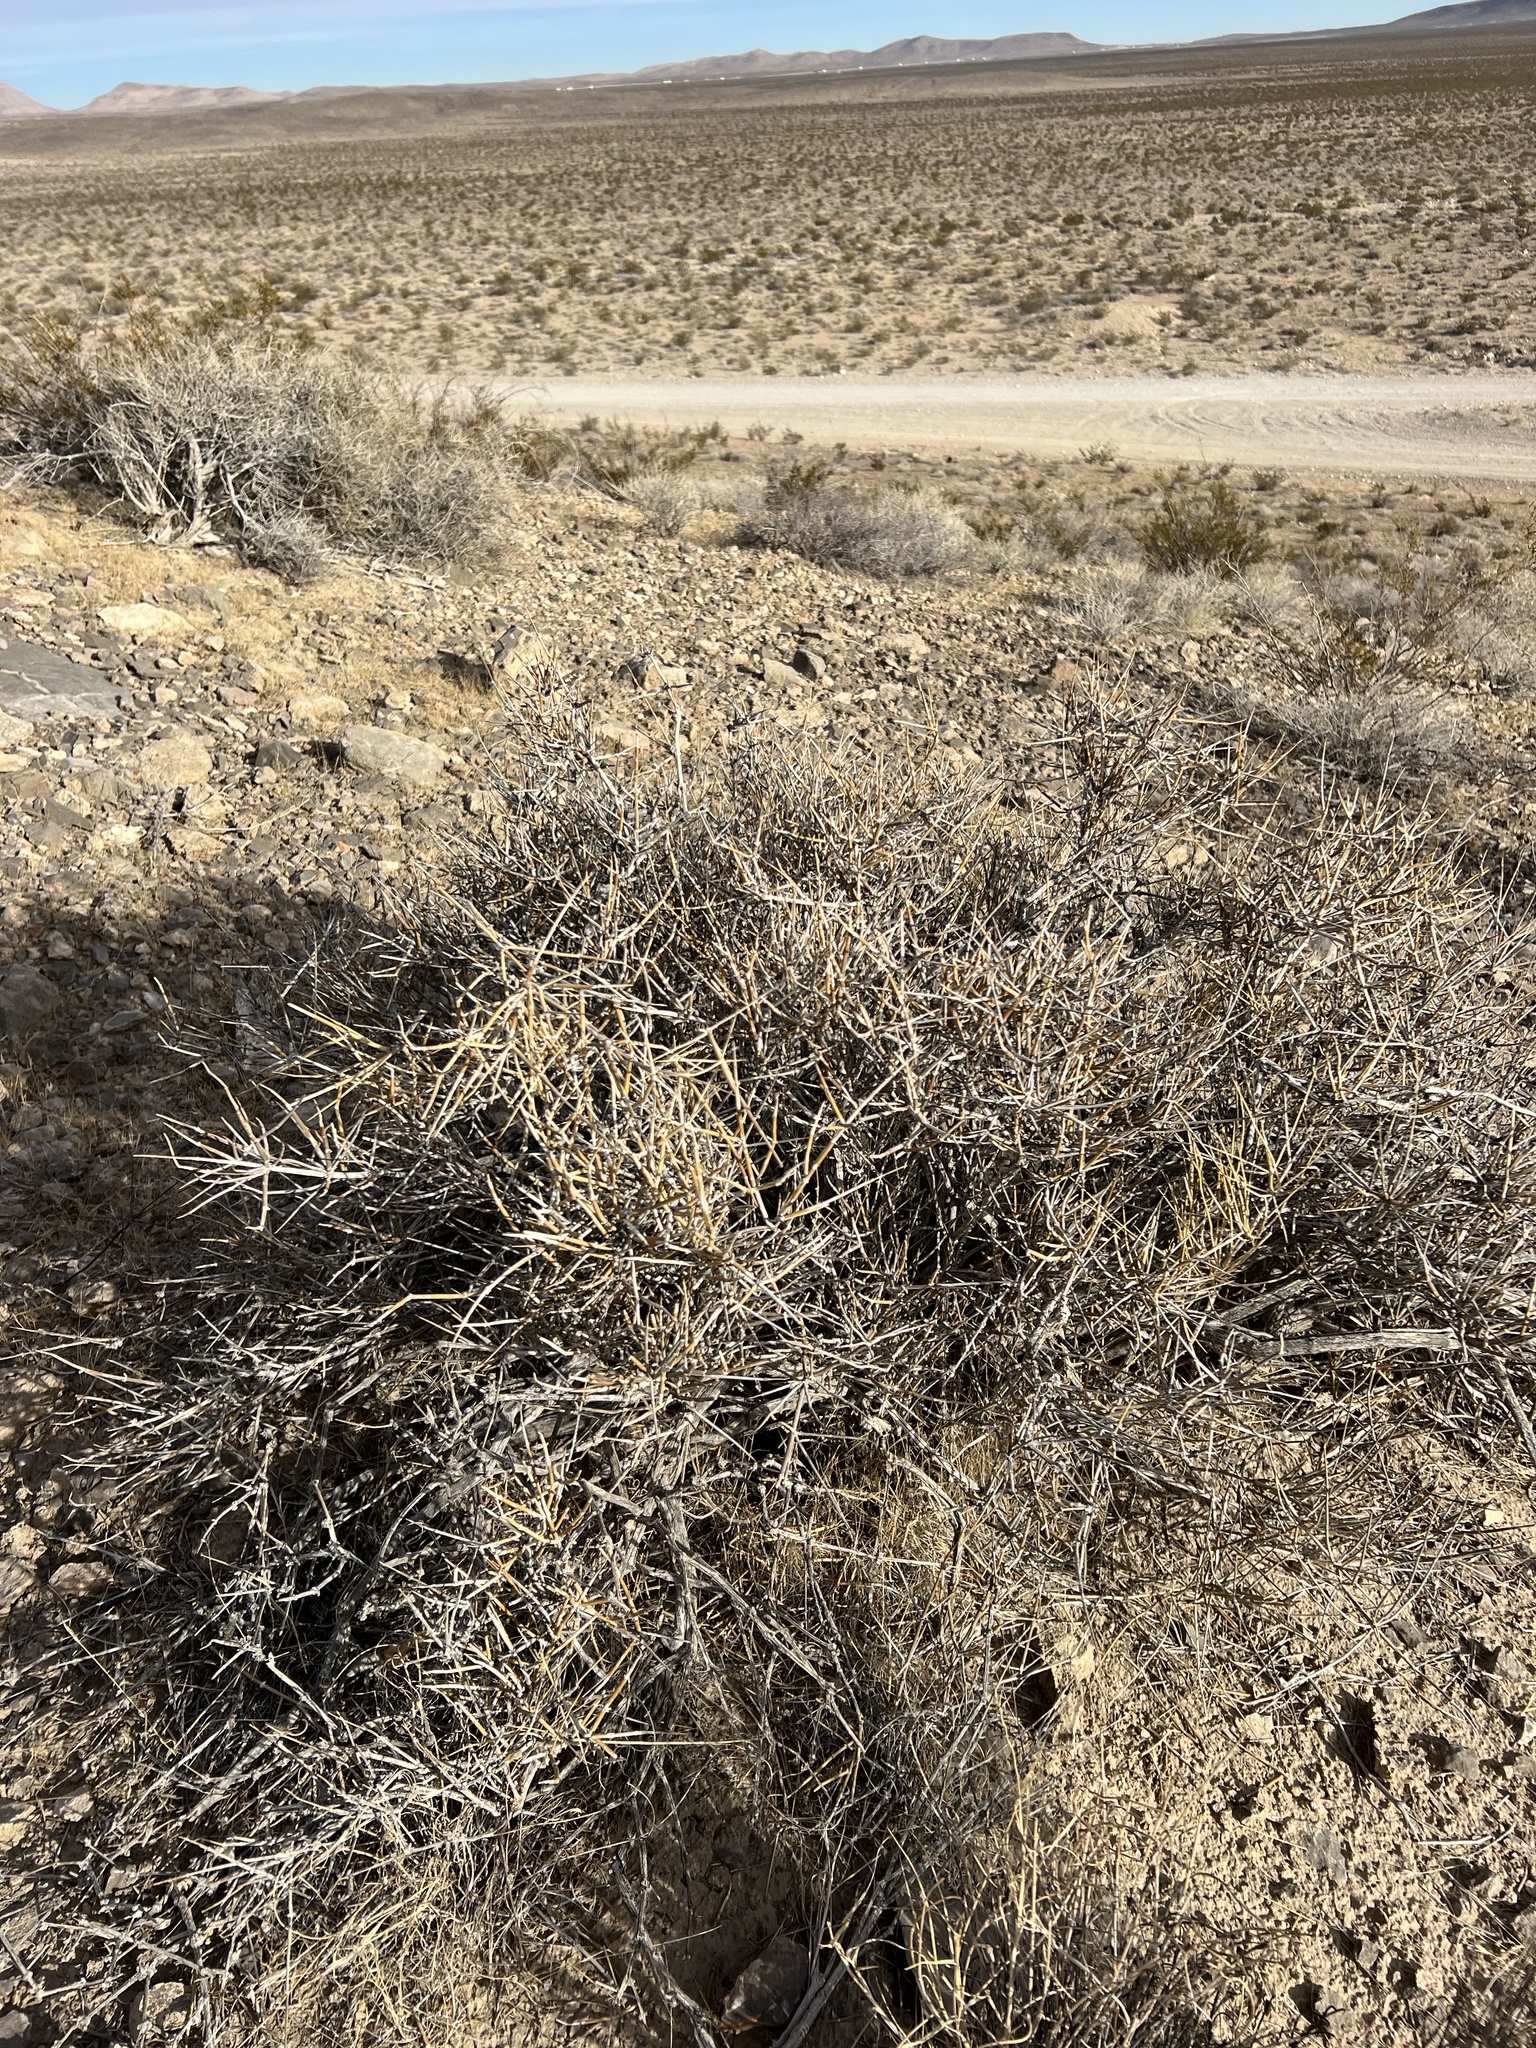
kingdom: Plantae
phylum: Tracheophyta
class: Gnetopsida
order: Ephedrales
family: Ephedraceae
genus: Ephedra
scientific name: Ephedra nevadensis
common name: Gray ephedra
